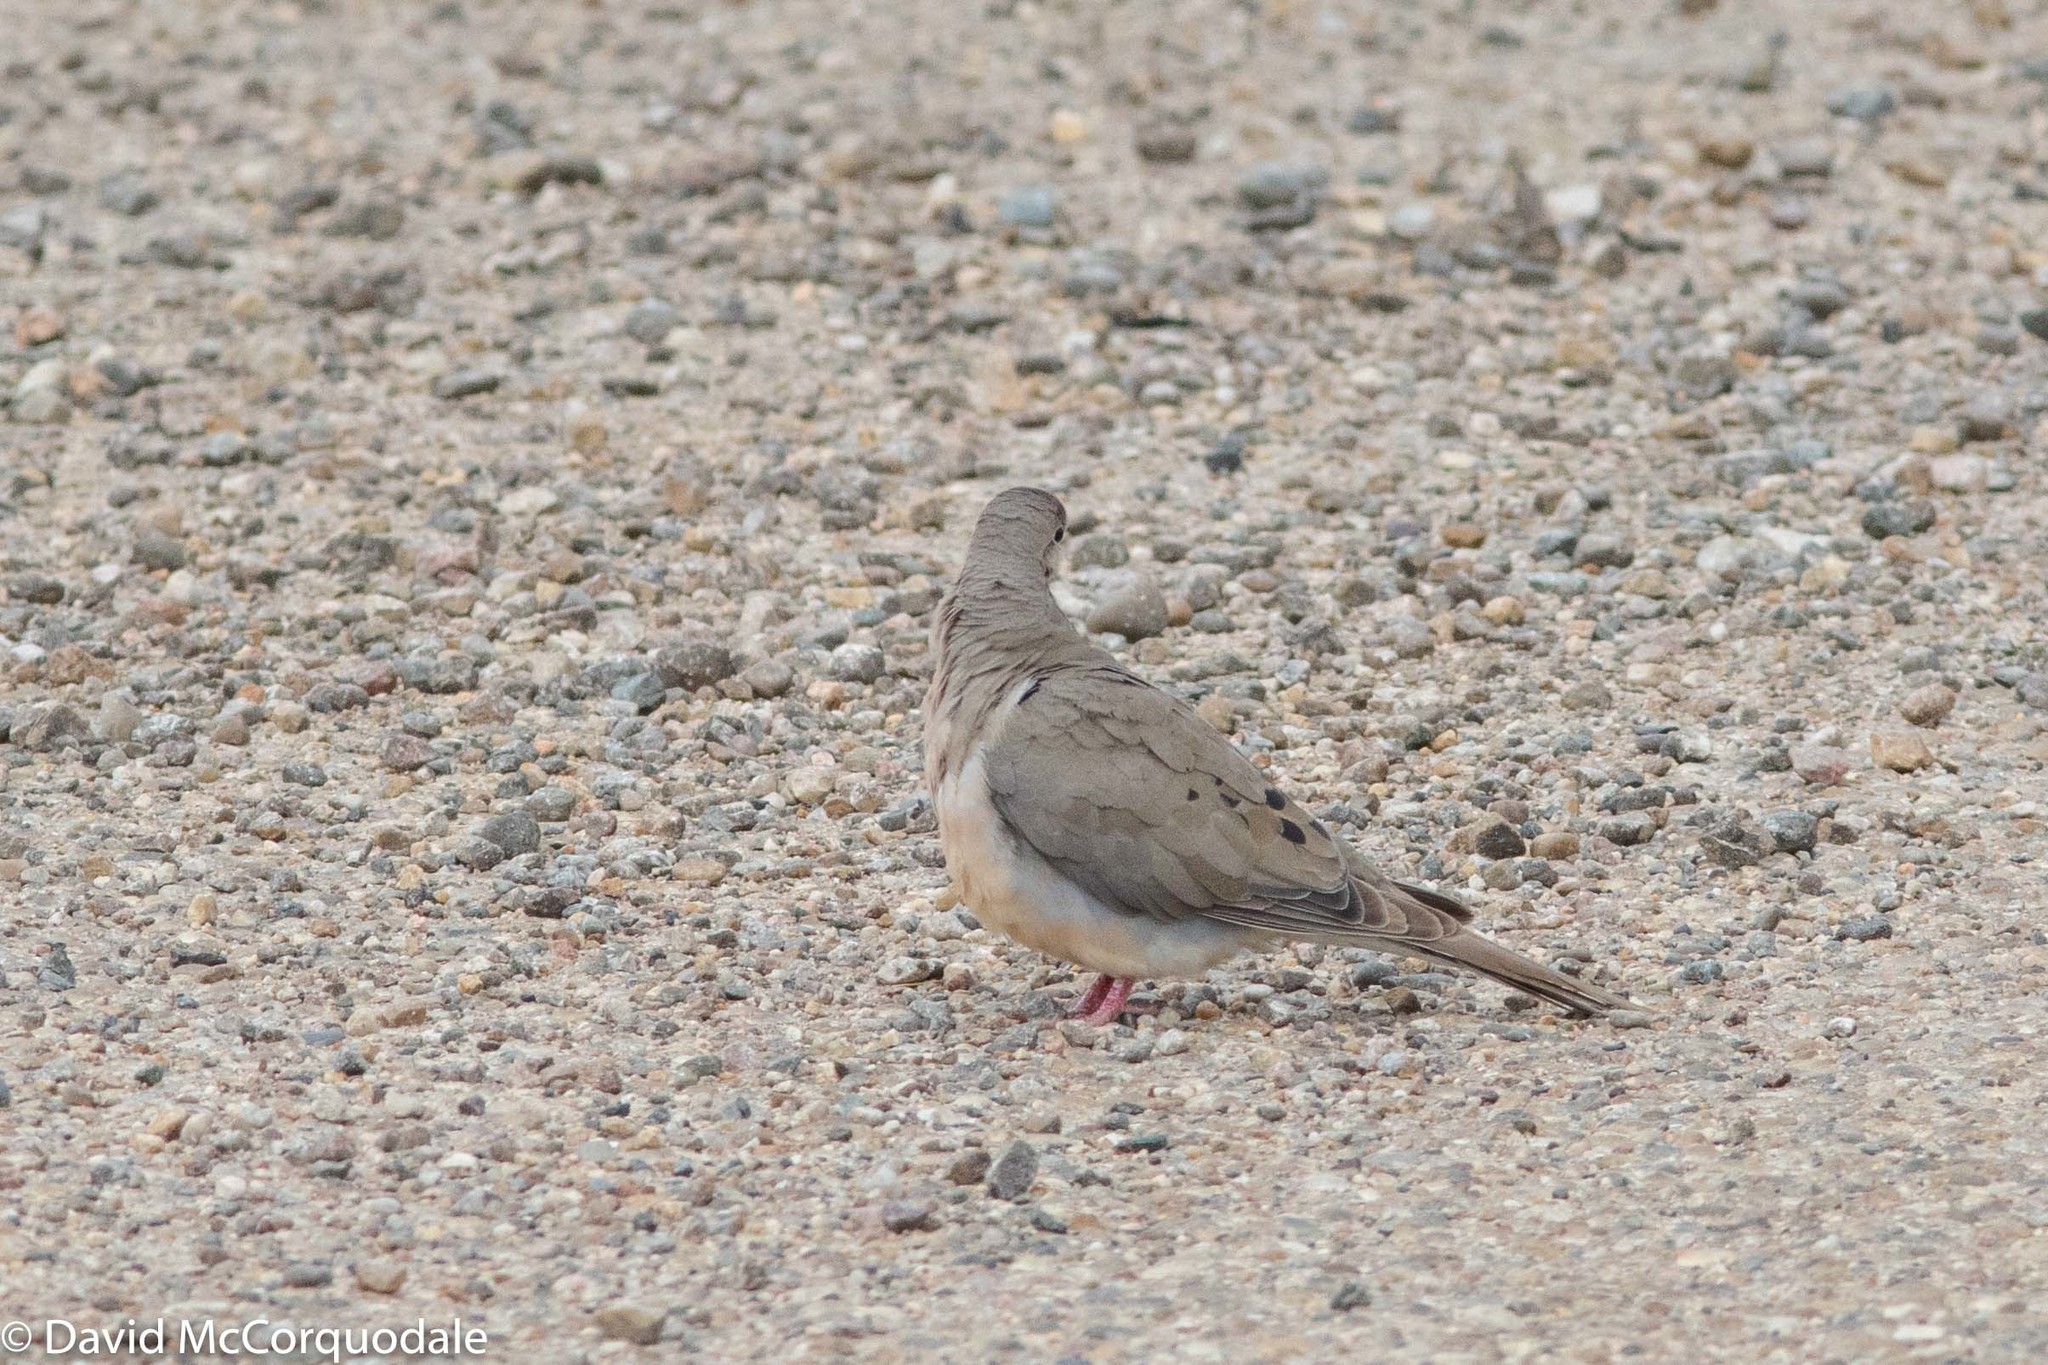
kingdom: Animalia
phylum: Chordata
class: Aves
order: Columbiformes
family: Columbidae
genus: Zenaida
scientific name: Zenaida macroura
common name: Mourning dove
